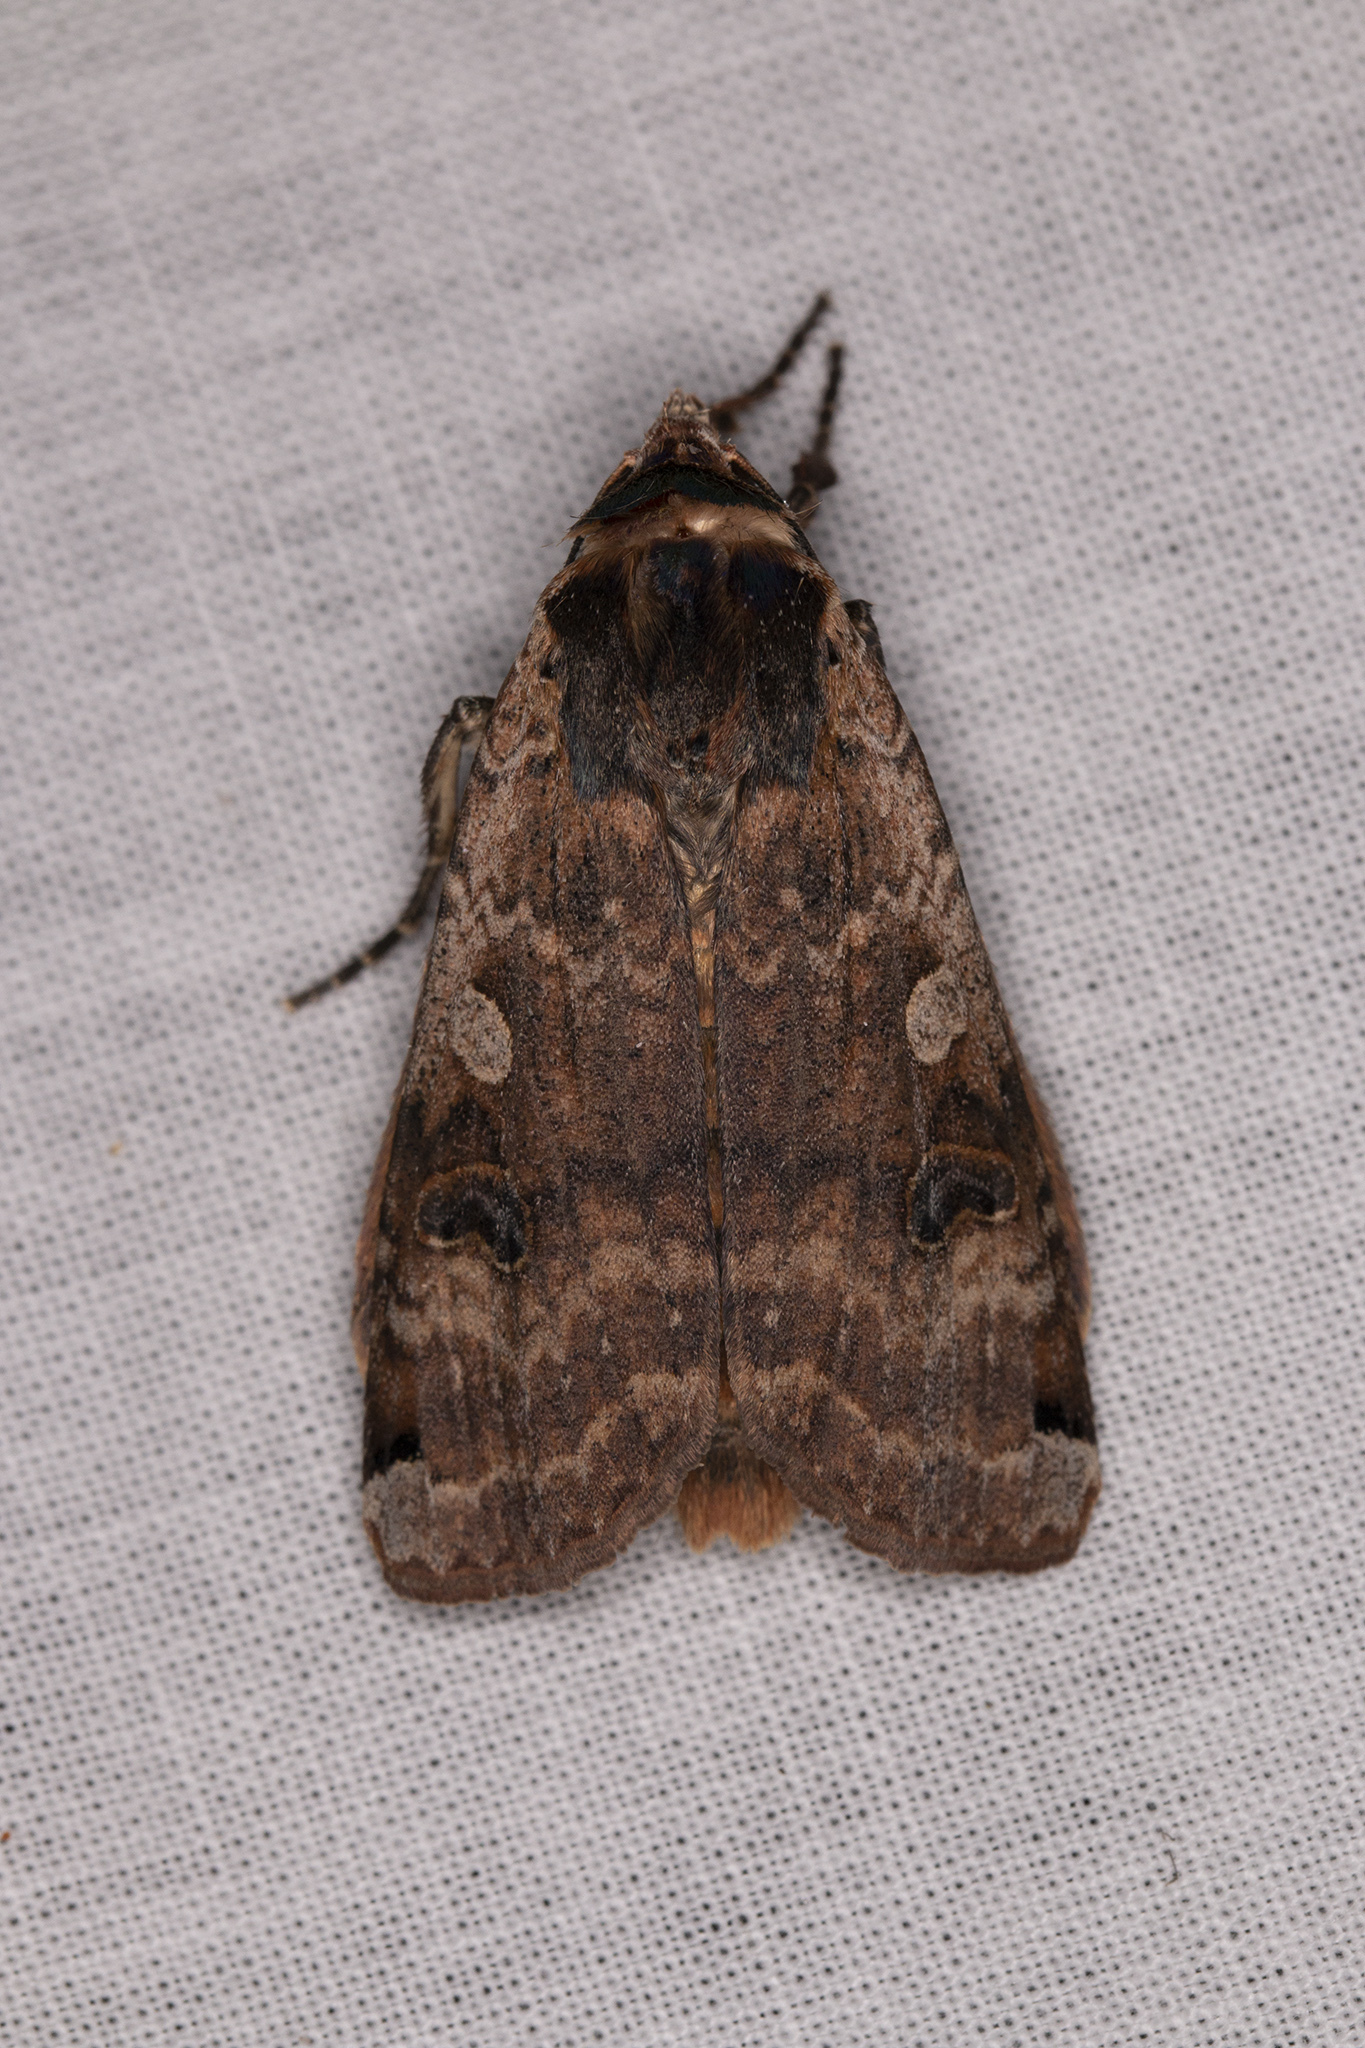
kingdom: Animalia
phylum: Arthropoda
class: Insecta
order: Lepidoptera
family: Noctuidae
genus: Noctua
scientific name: Noctua pronuba
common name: Large yellow underwing
